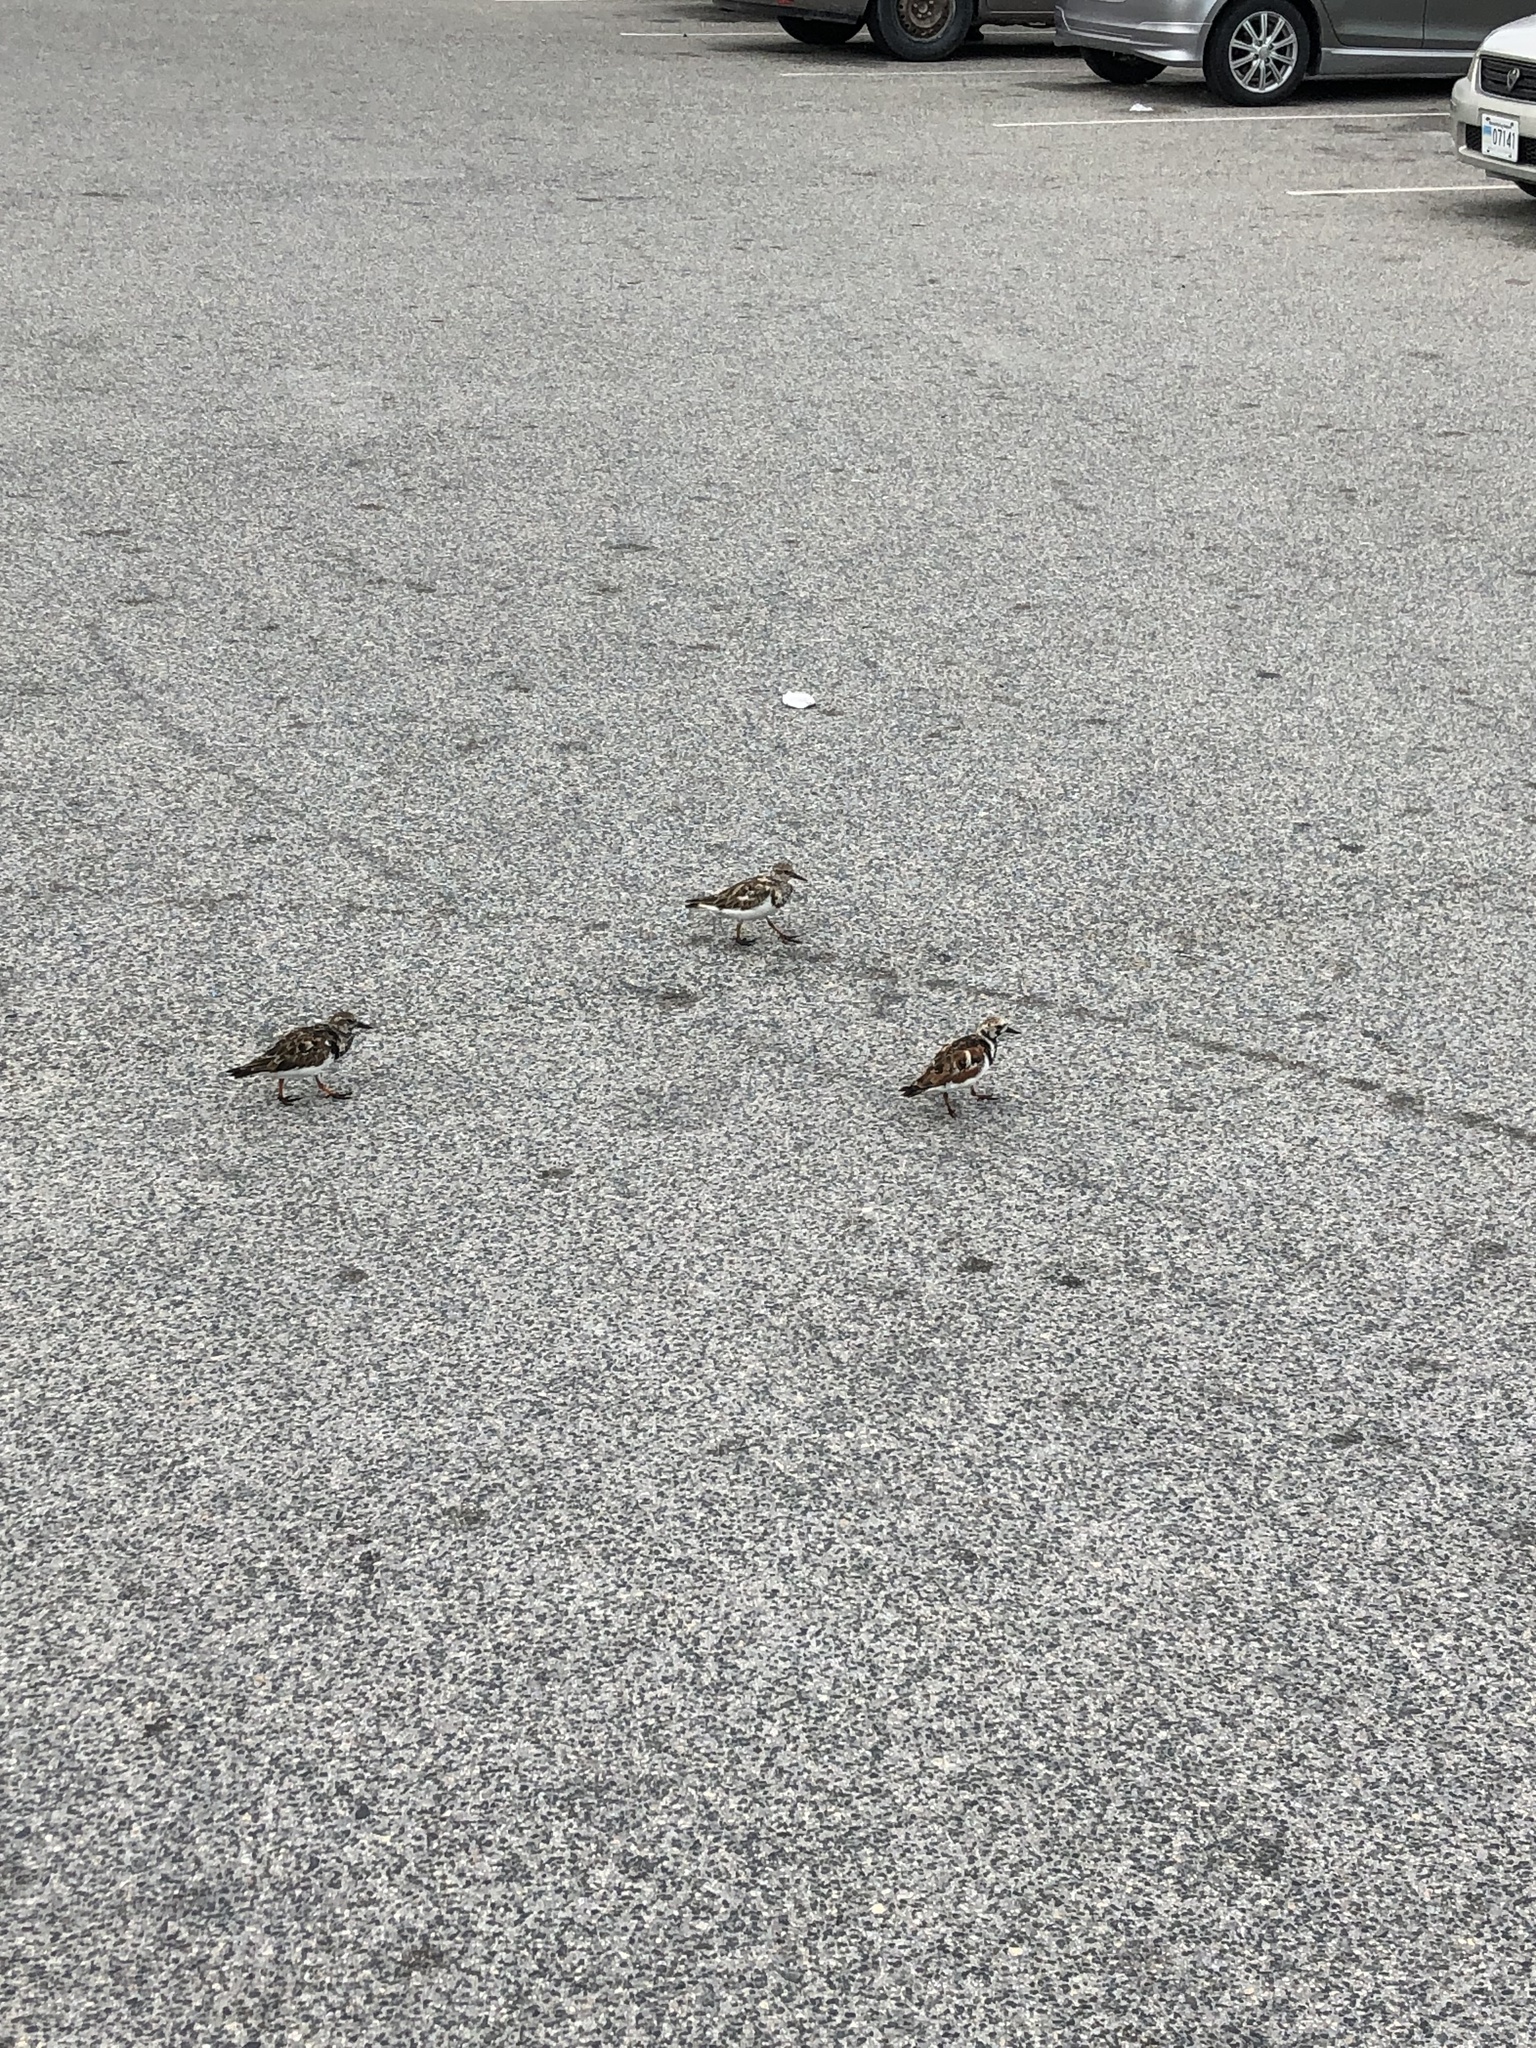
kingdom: Animalia
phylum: Chordata
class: Aves
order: Charadriiformes
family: Scolopacidae
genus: Arenaria
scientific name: Arenaria interpres
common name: Ruddy turnstone
